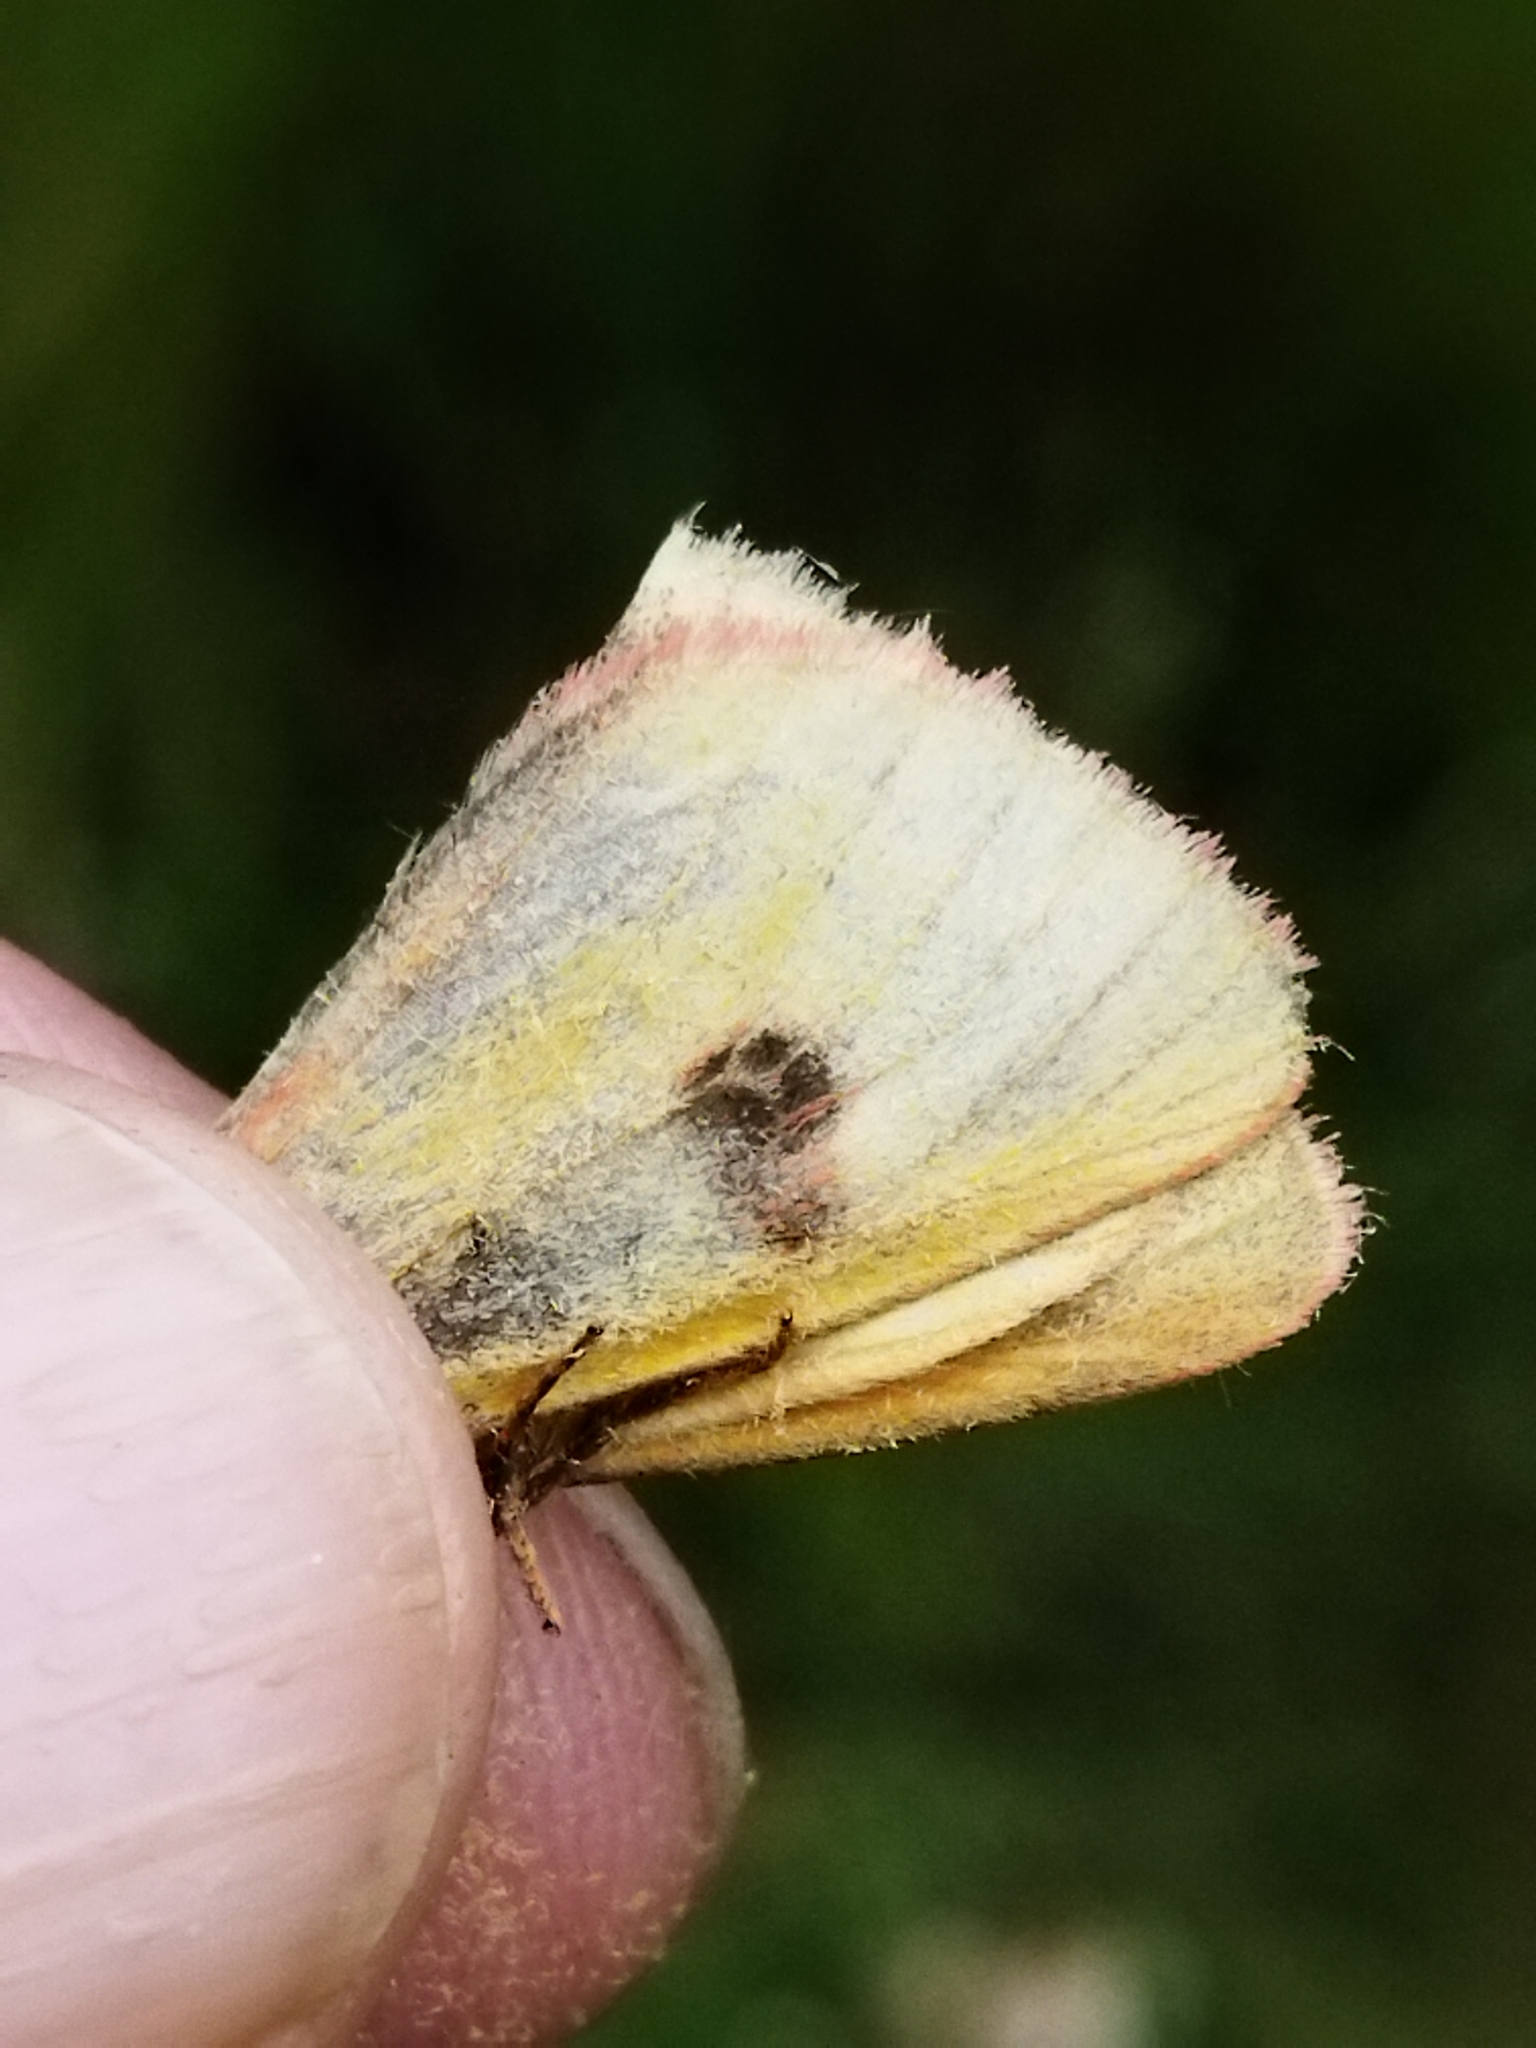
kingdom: Animalia
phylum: Arthropoda
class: Insecta
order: Lepidoptera
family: Erebidae
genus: Diacrisia
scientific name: Diacrisia sannio
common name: Clouded buff
